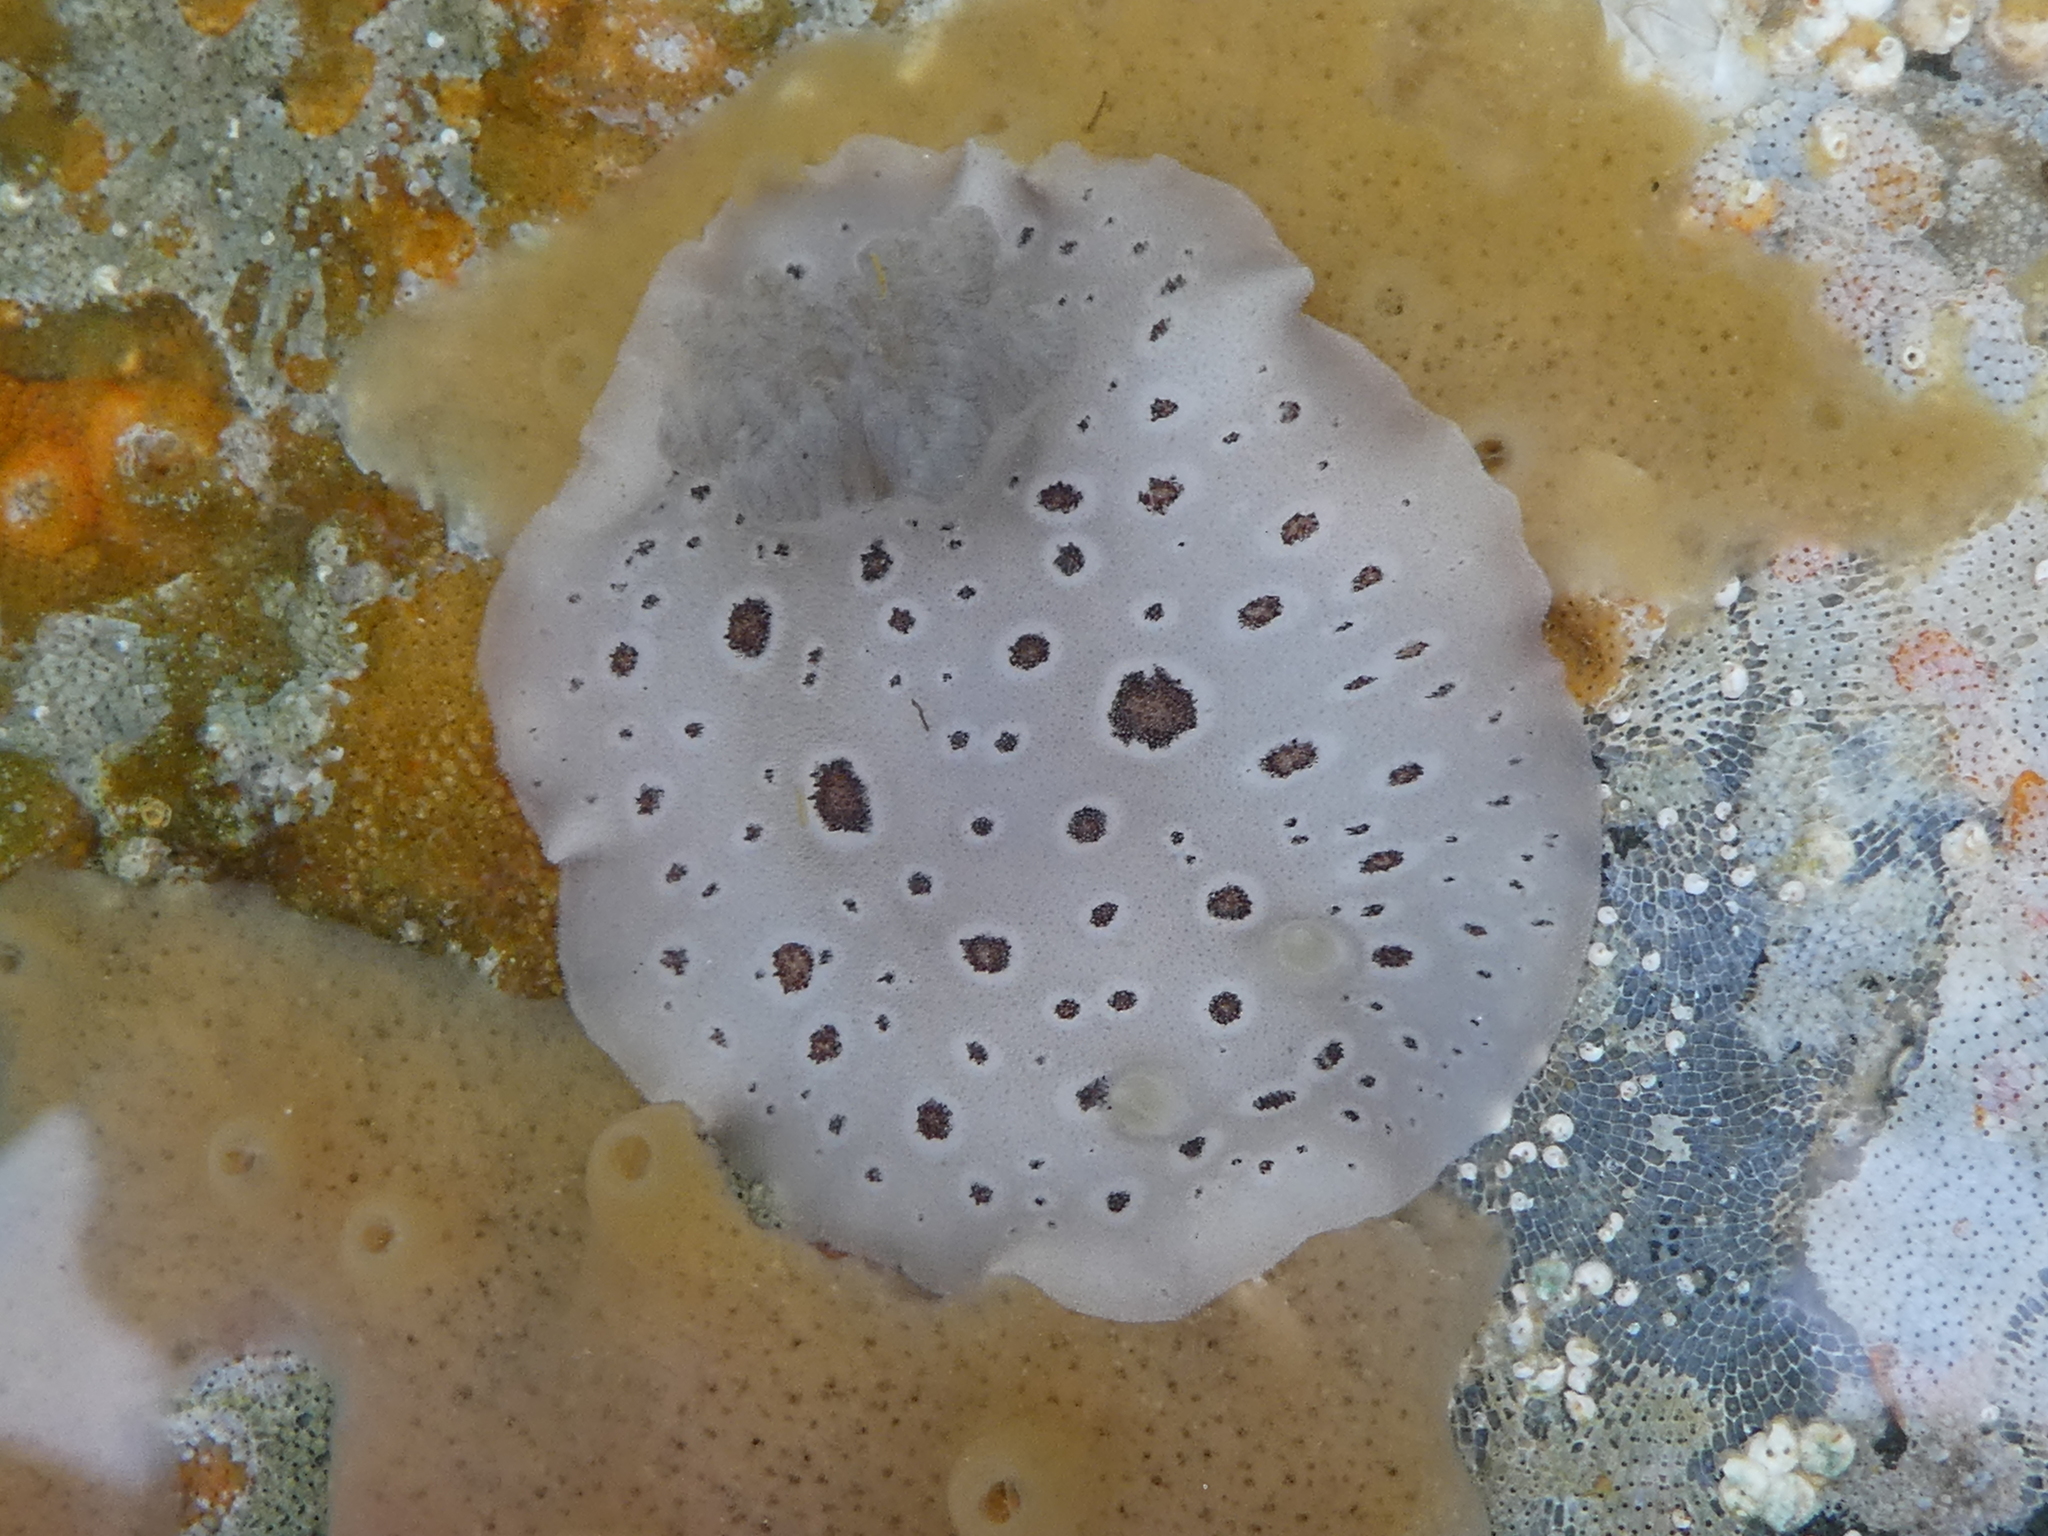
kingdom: Animalia
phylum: Mollusca
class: Gastropoda
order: Nudibranchia
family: Discodorididae
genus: Diaulula
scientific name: Diaulula odonoghuei
